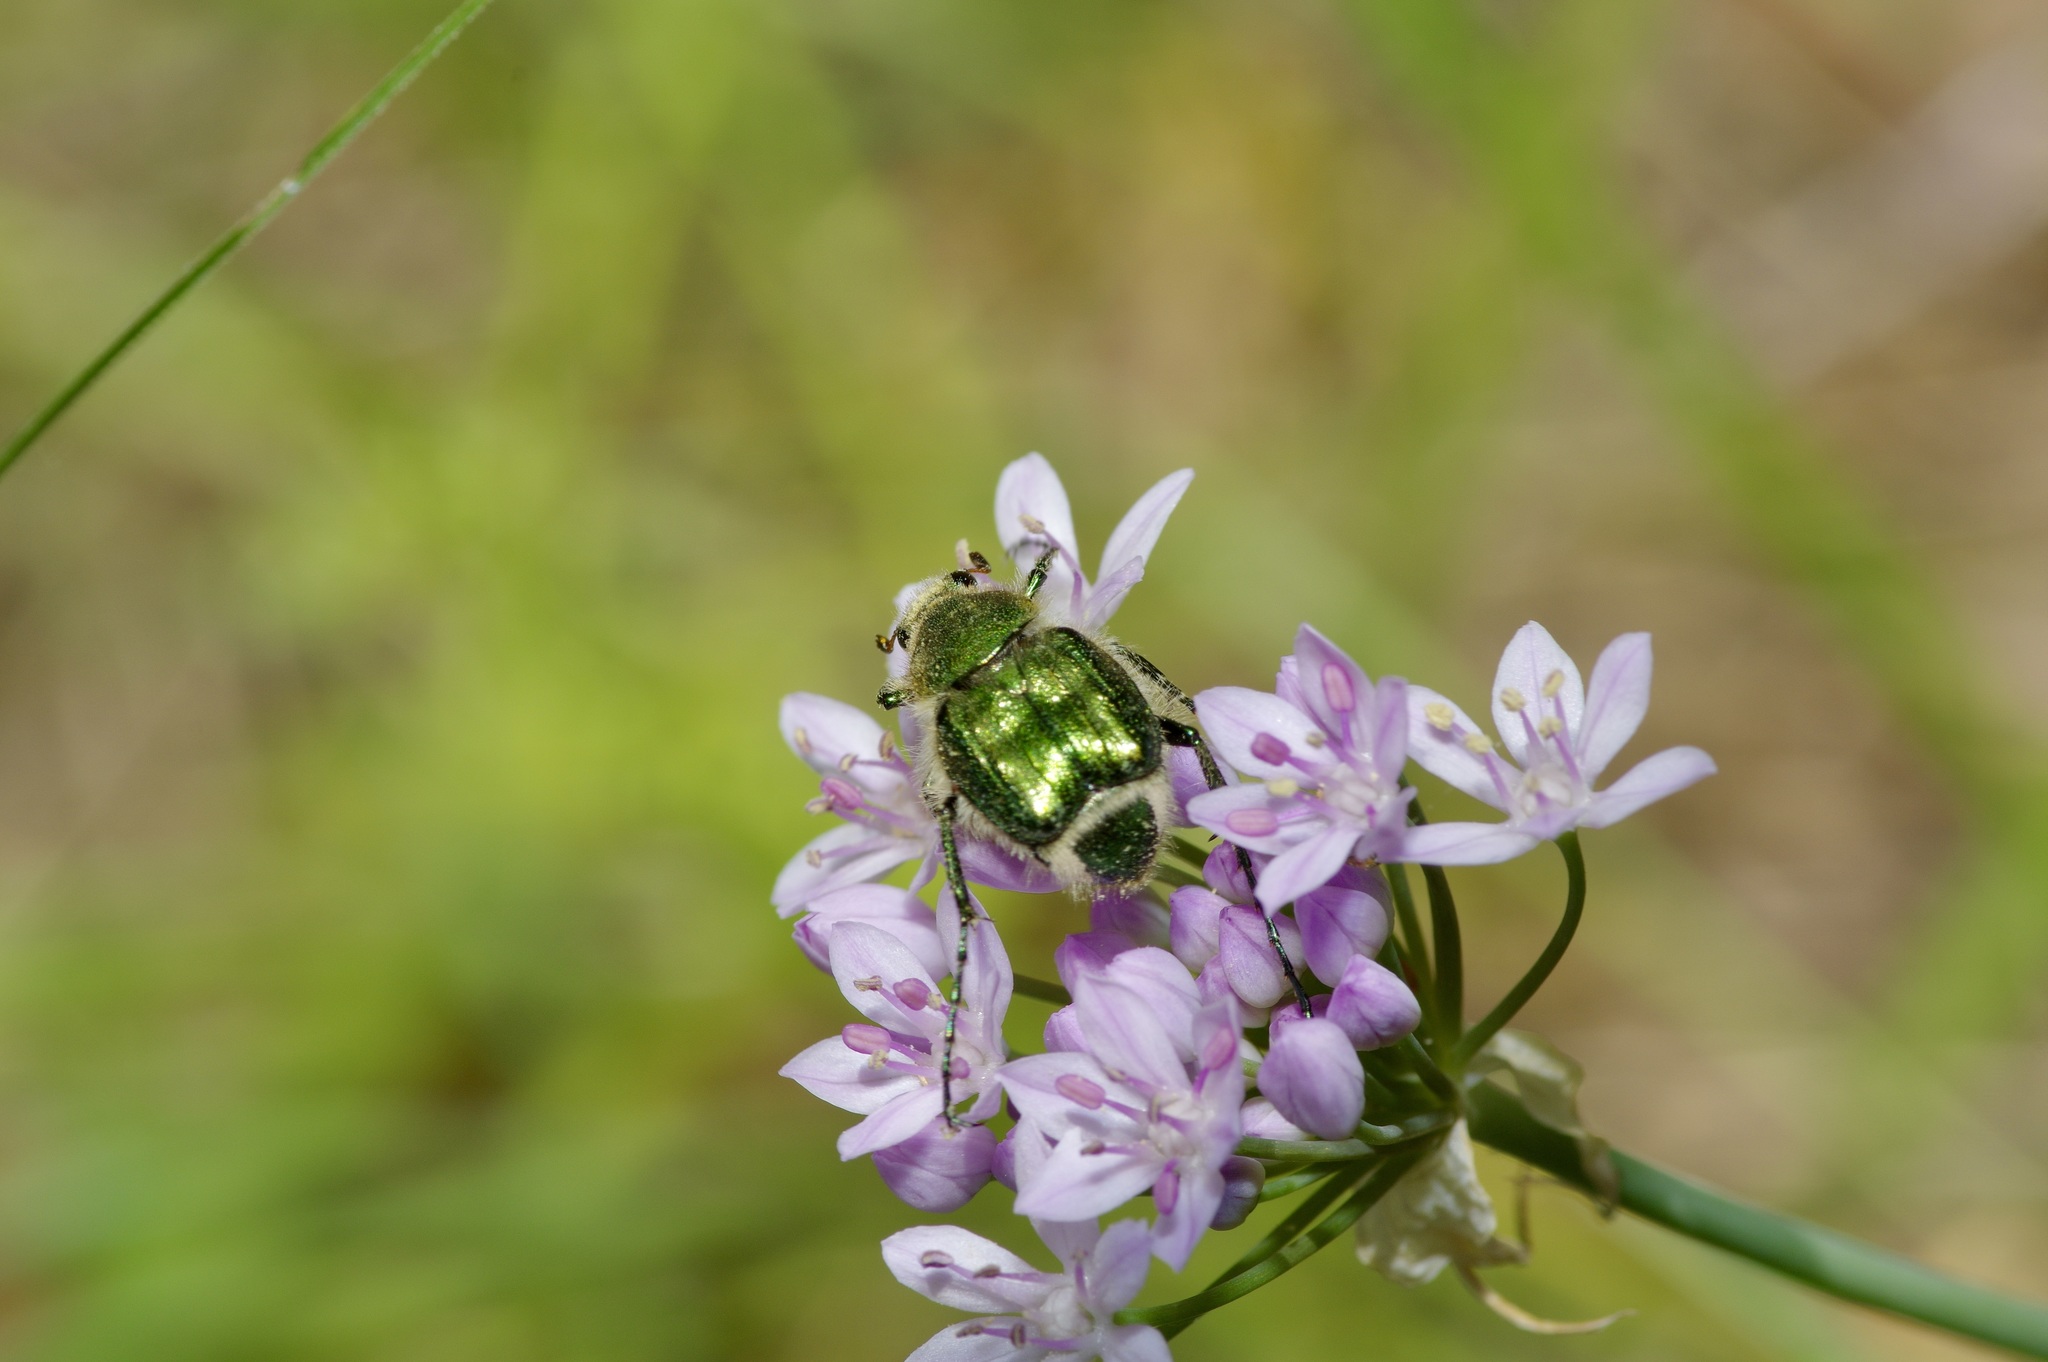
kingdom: Animalia
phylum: Arthropoda
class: Insecta
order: Coleoptera
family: Scarabaeidae
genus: Trichiotinus
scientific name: Trichiotinus lunulatus
